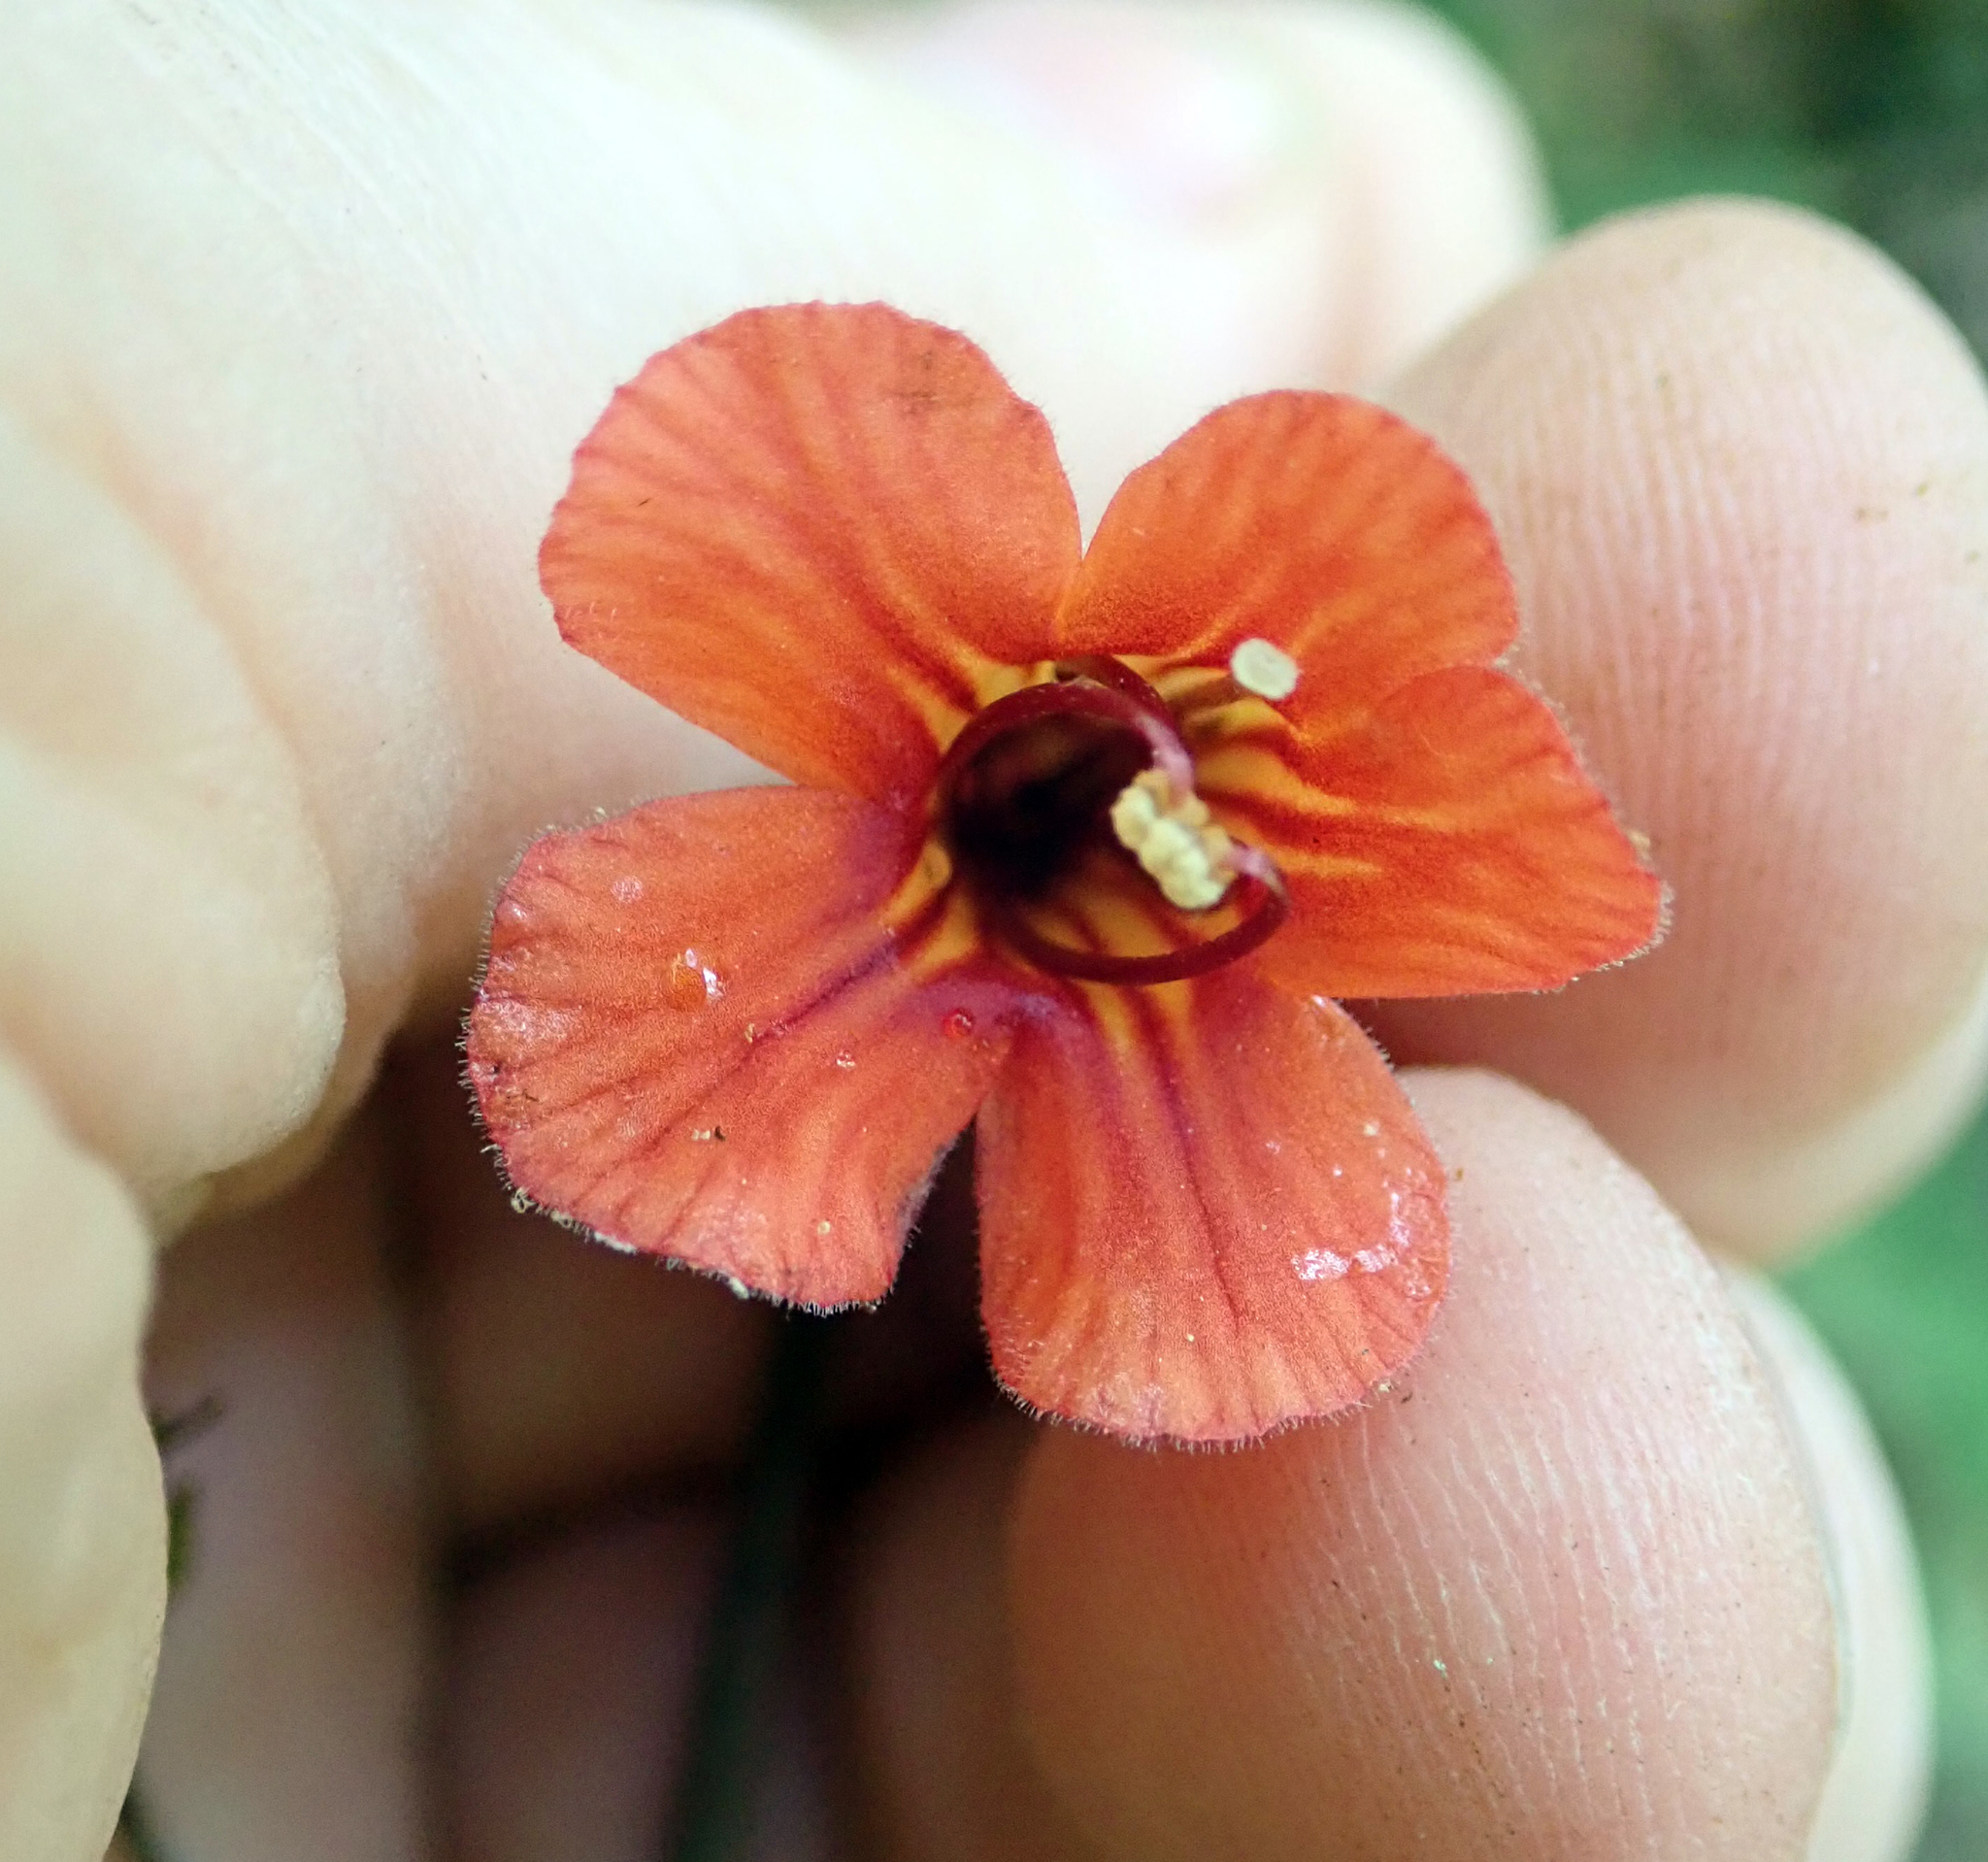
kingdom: Plantae
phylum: Tracheophyta
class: Magnoliopsida
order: Lamiales
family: Gesneriaceae
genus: Rhabdothamnus
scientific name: Rhabdothamnus solandri
